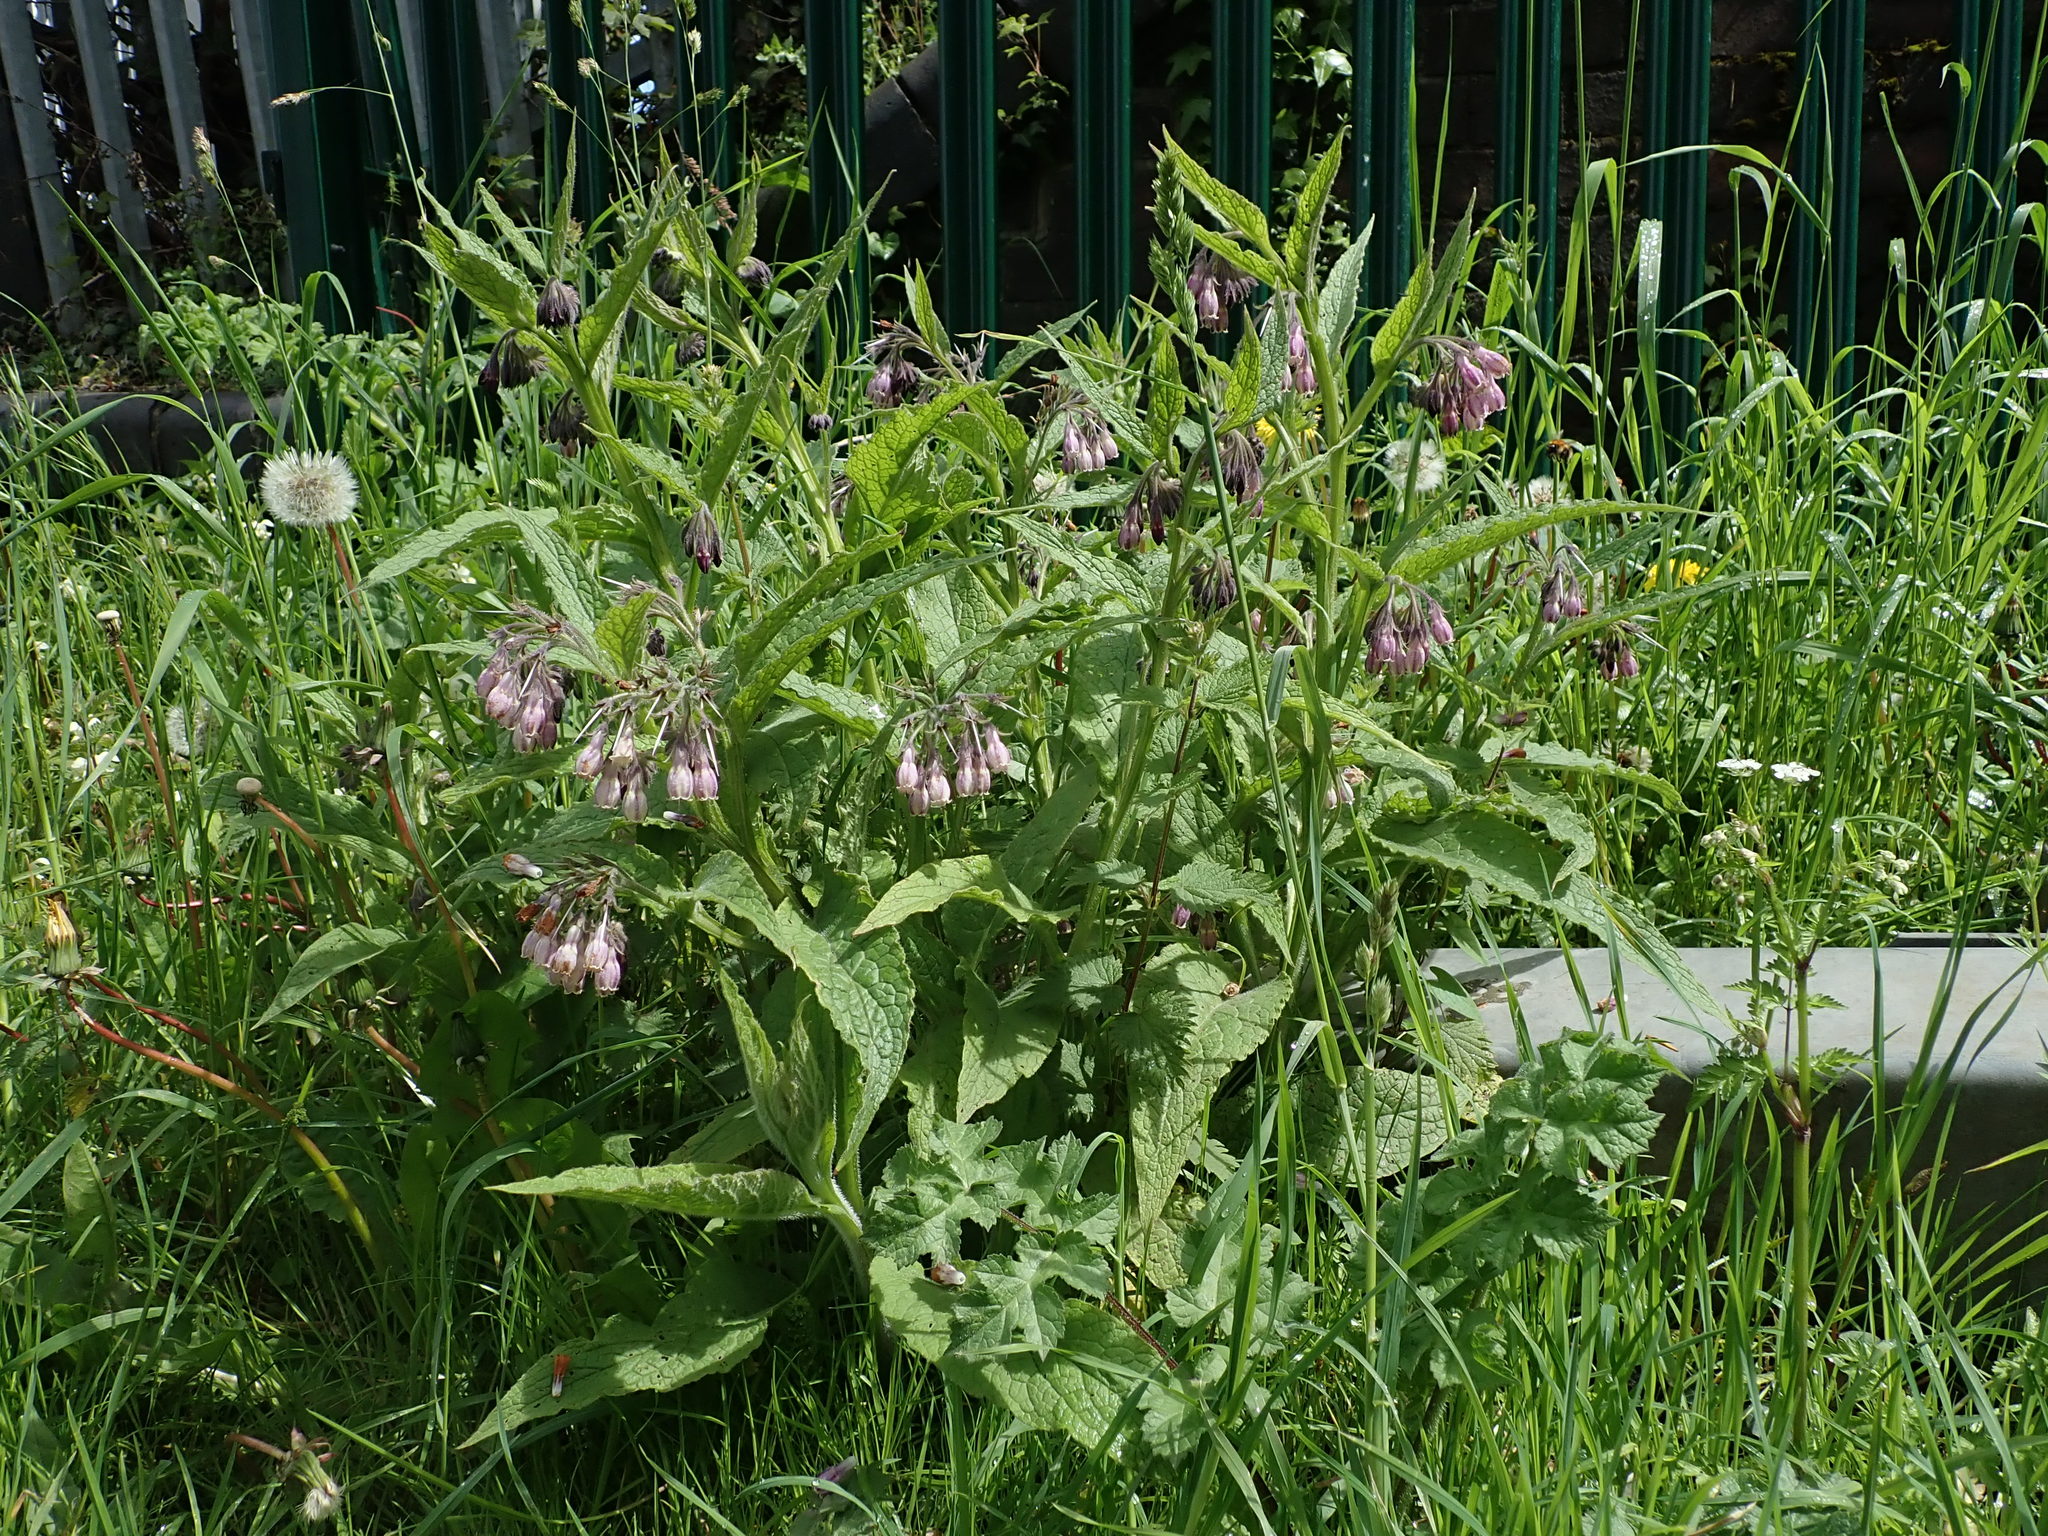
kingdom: Plantae
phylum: Tracheophyta
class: Magnoliopsida
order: Boraginales
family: Boraginaceae
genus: Symphytum
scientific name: Symphytum officinale
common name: Common comfrey
